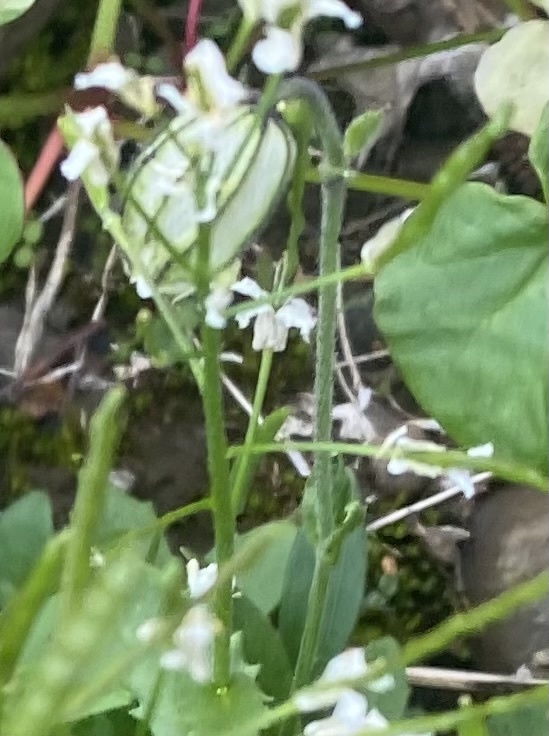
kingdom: Plantae
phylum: Tracheophyta
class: Magnoliopsida
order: Caryophyllales
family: Caryophyllaceae
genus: Silene
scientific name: Silene wahlbergella
